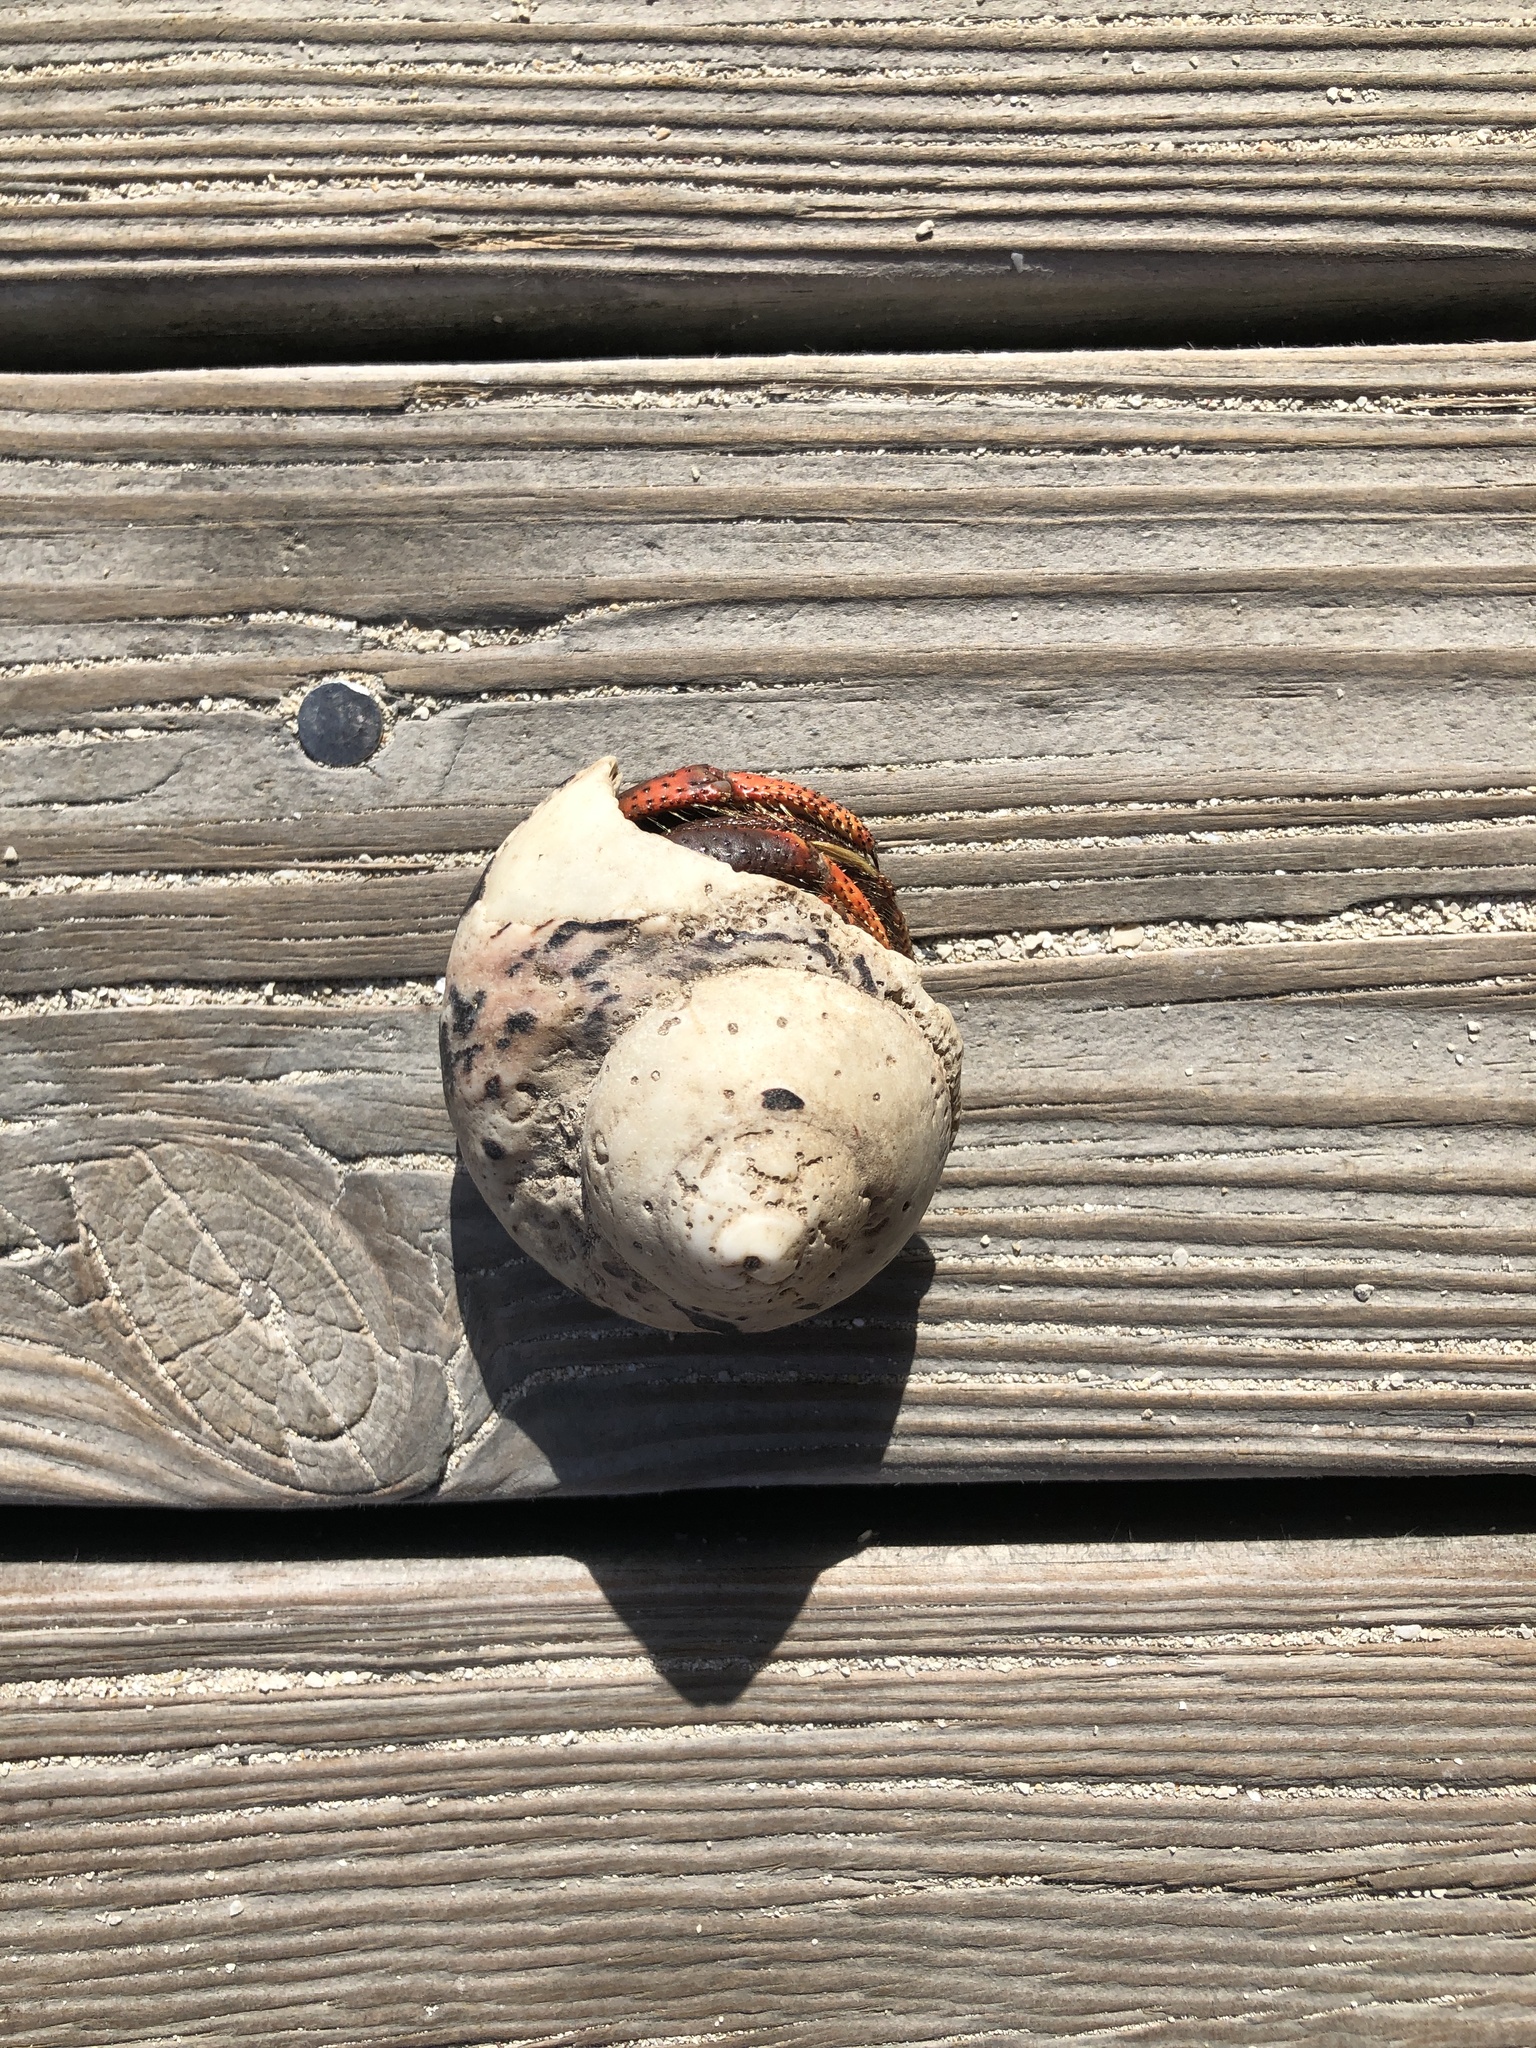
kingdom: Animalia
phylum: Arthropoda
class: Malacostraca
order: Decapoda
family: Coenobitidae
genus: Coenobita
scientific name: Coenobita clypeatus
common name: Caribbean hermit crab
